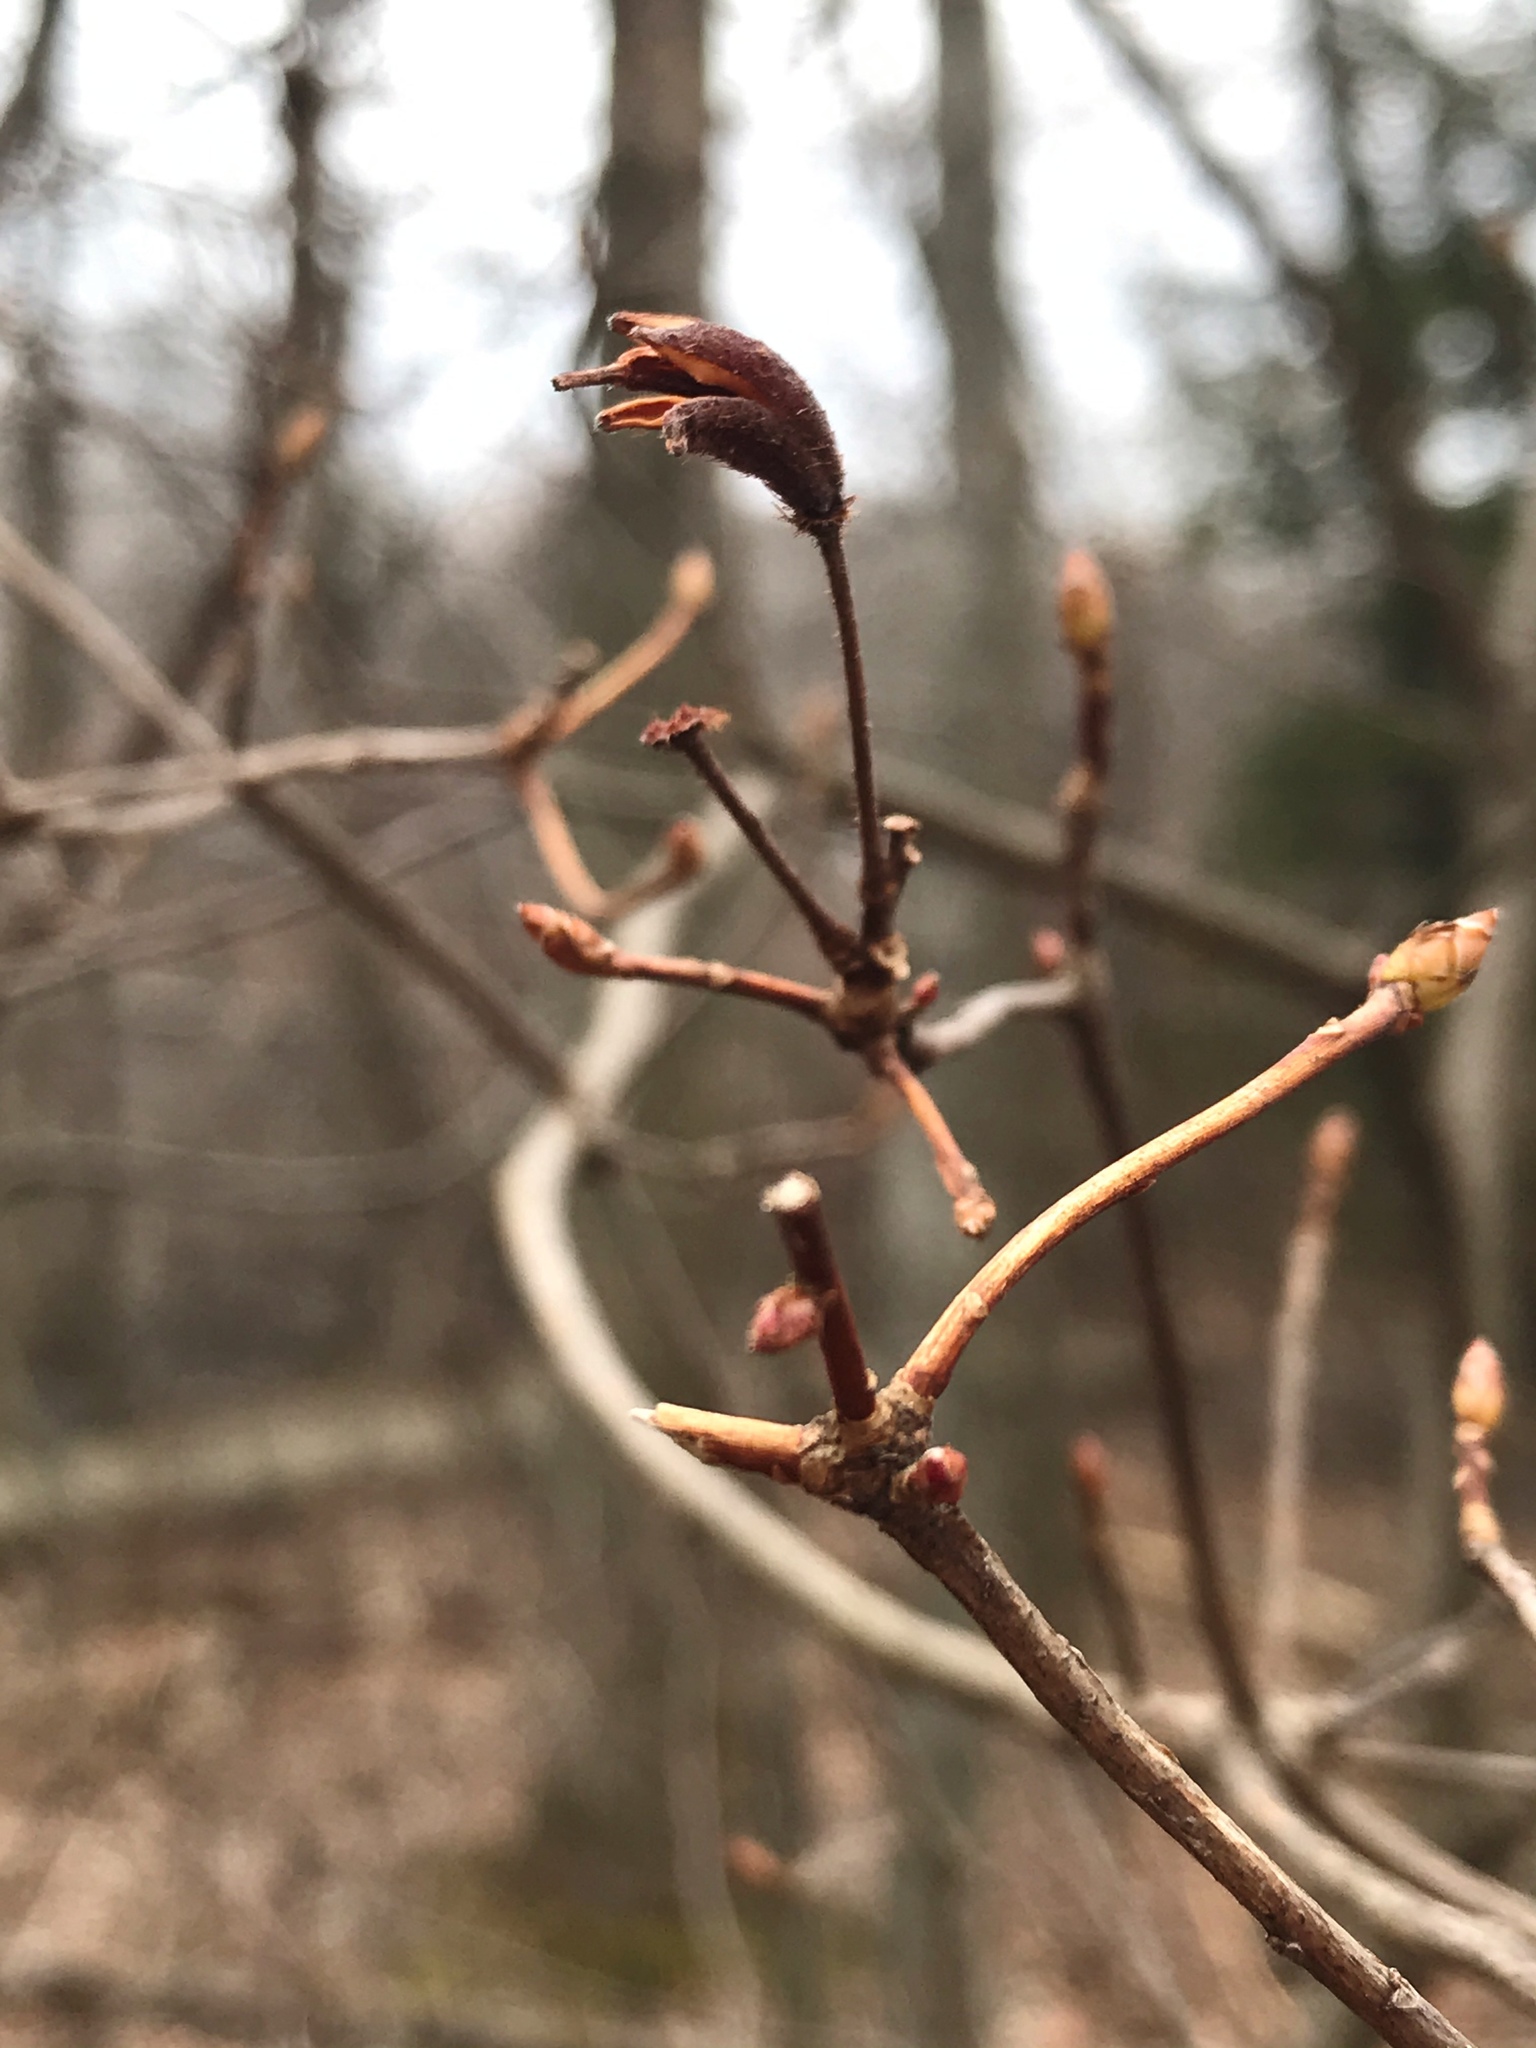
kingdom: Plantae
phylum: Tracheophyta
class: Magnoliopsida
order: Ericales
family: Ericaceae
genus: Rhododendron
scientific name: Rhododendron viscosum
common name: Clammy azalea
